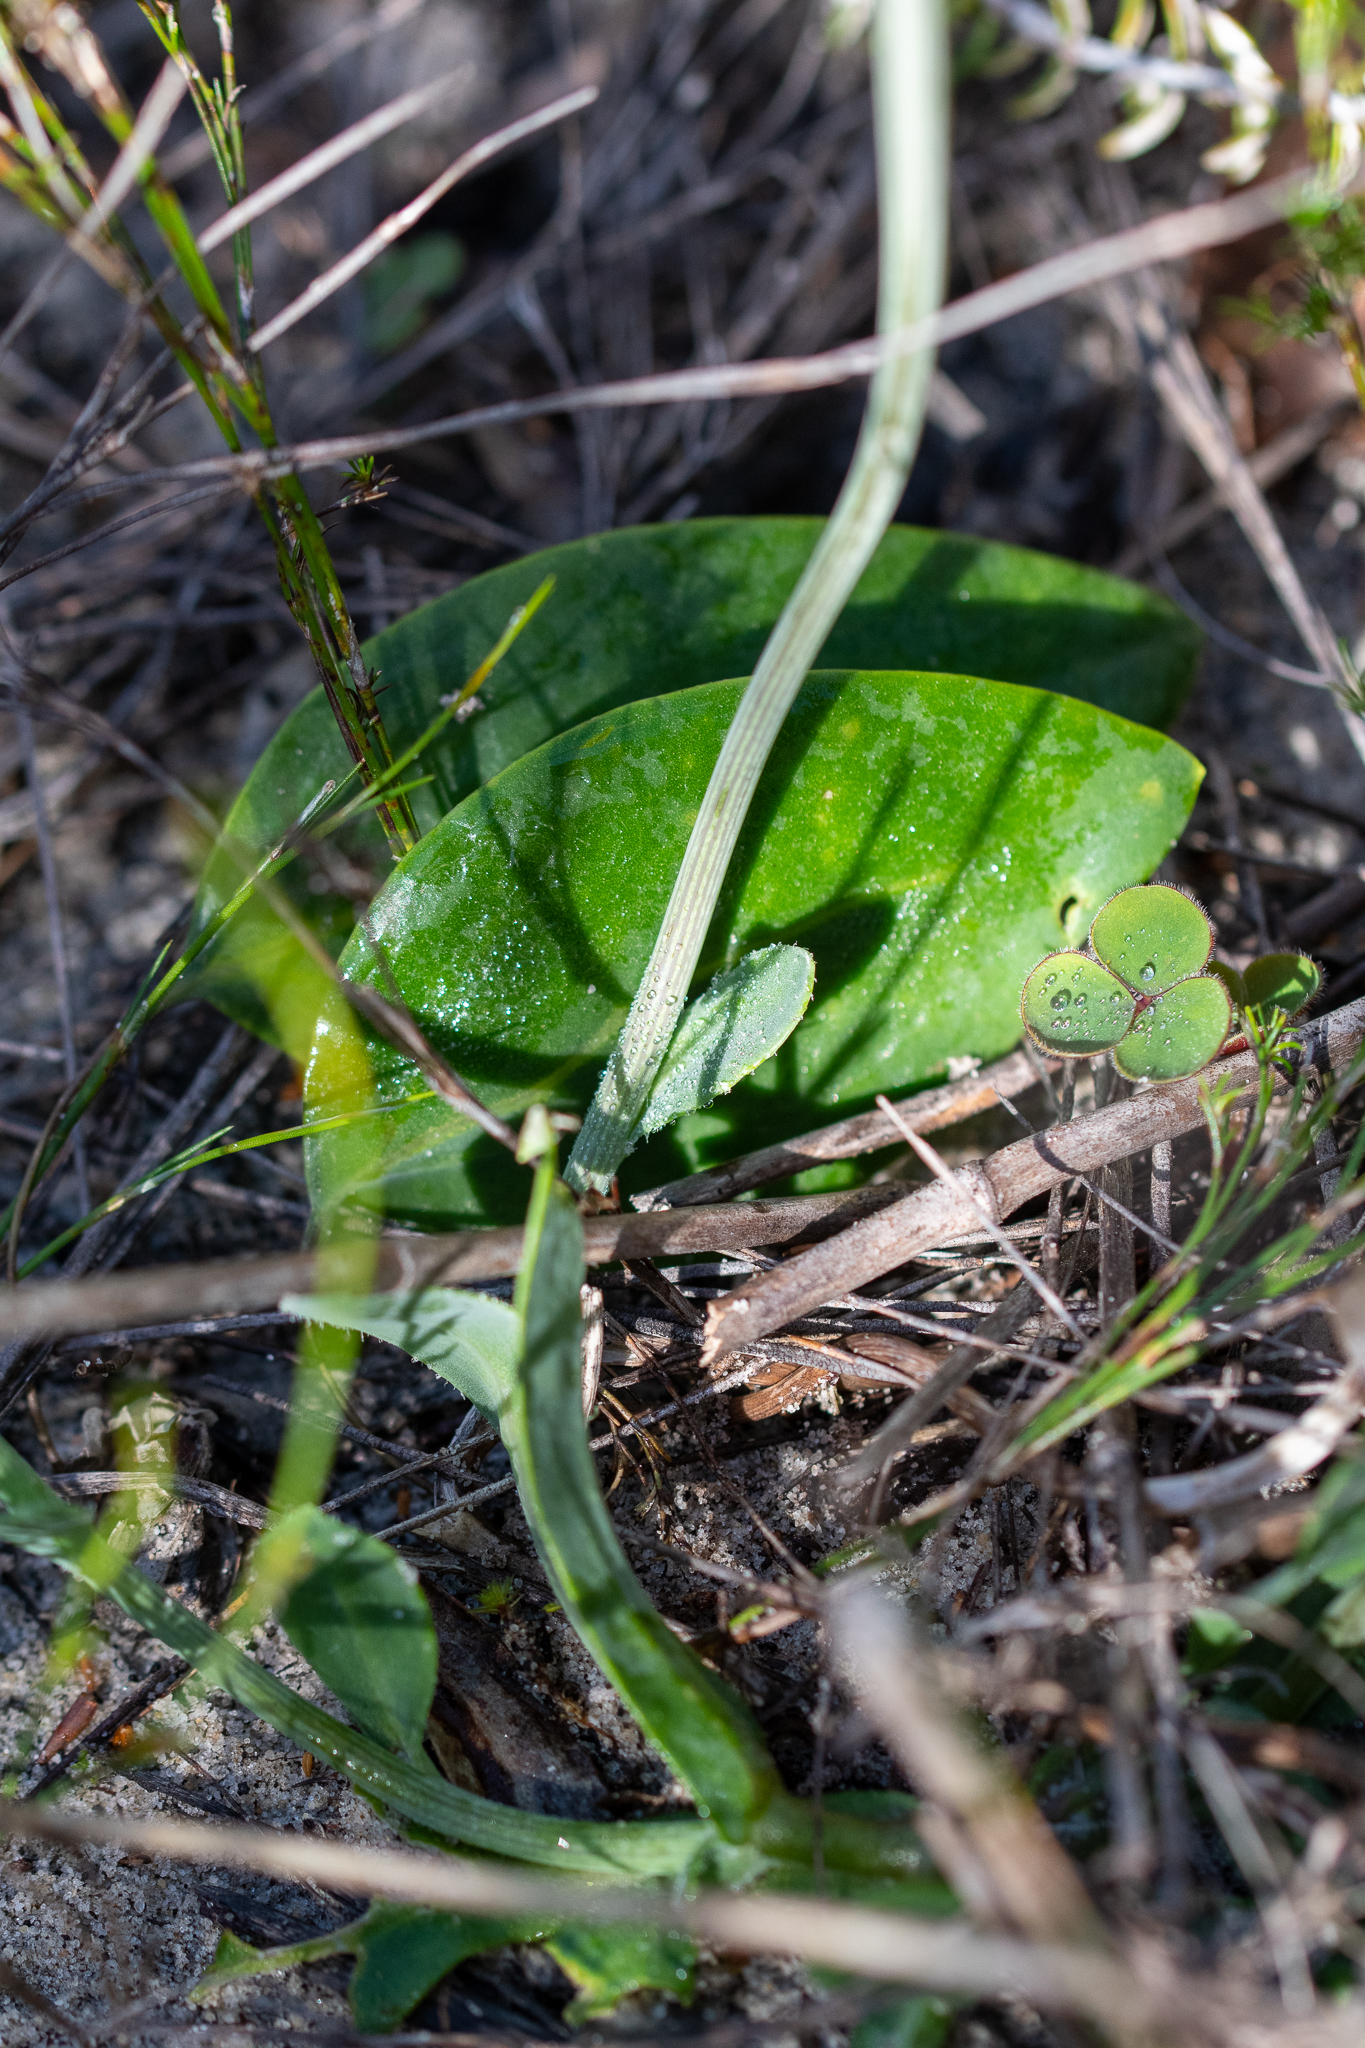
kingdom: Plantae
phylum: Tracheophyta
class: Magnoliopsida
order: Asterales
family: Asteraceae
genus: Othonna
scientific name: Othonna bulbosa
